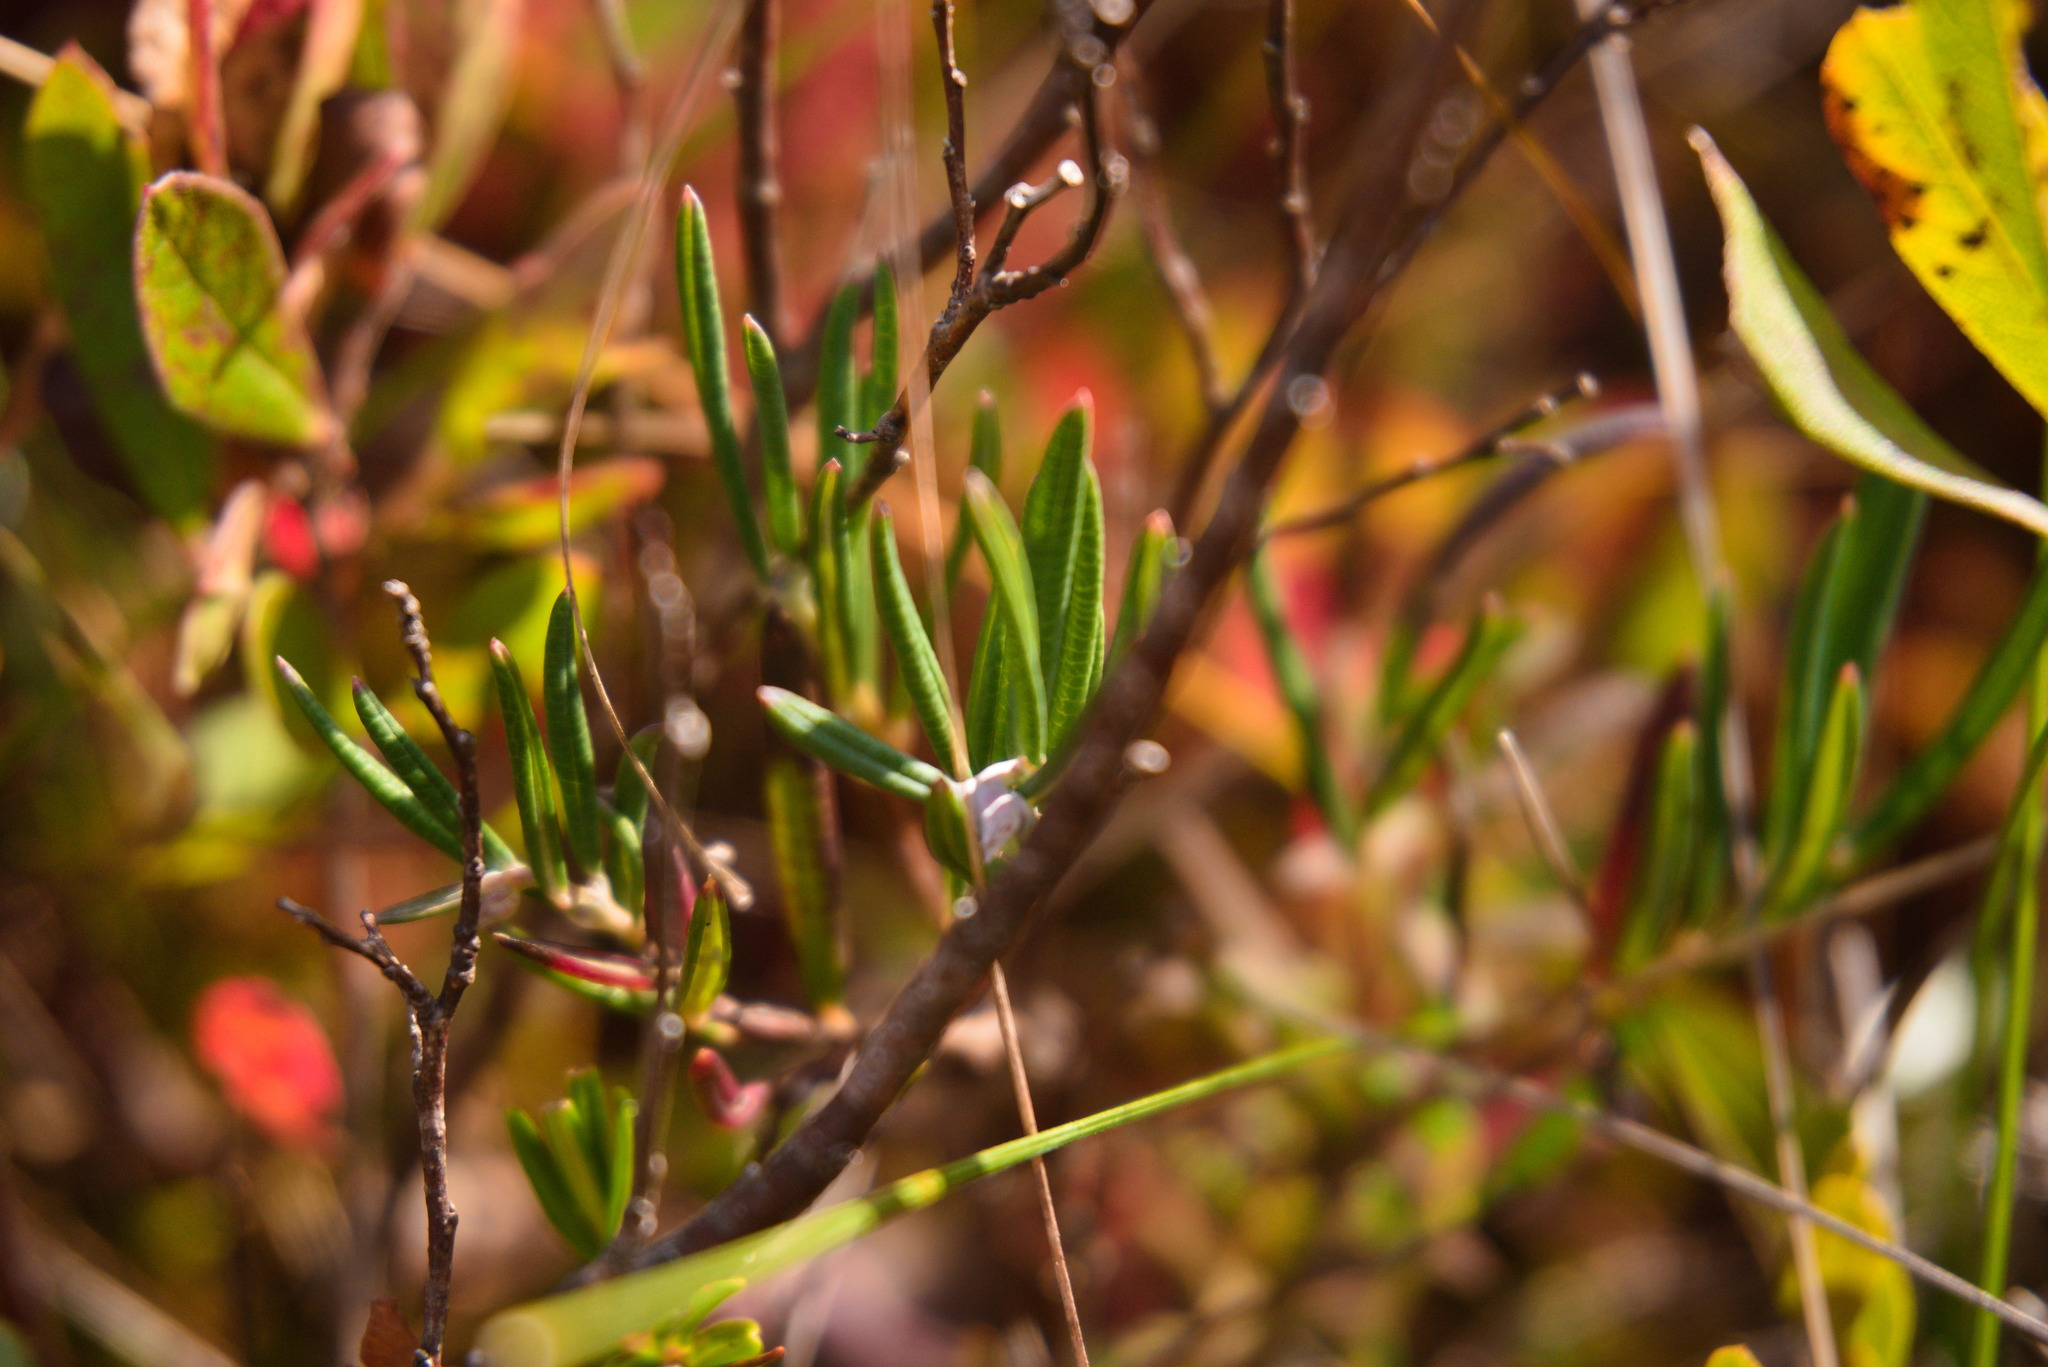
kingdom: Plantae
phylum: Tracheophyta
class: Magnoliopsida
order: Ericales
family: Ericaceae
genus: Andromeda
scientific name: Andromeda polifolia
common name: Bog-rosemary
